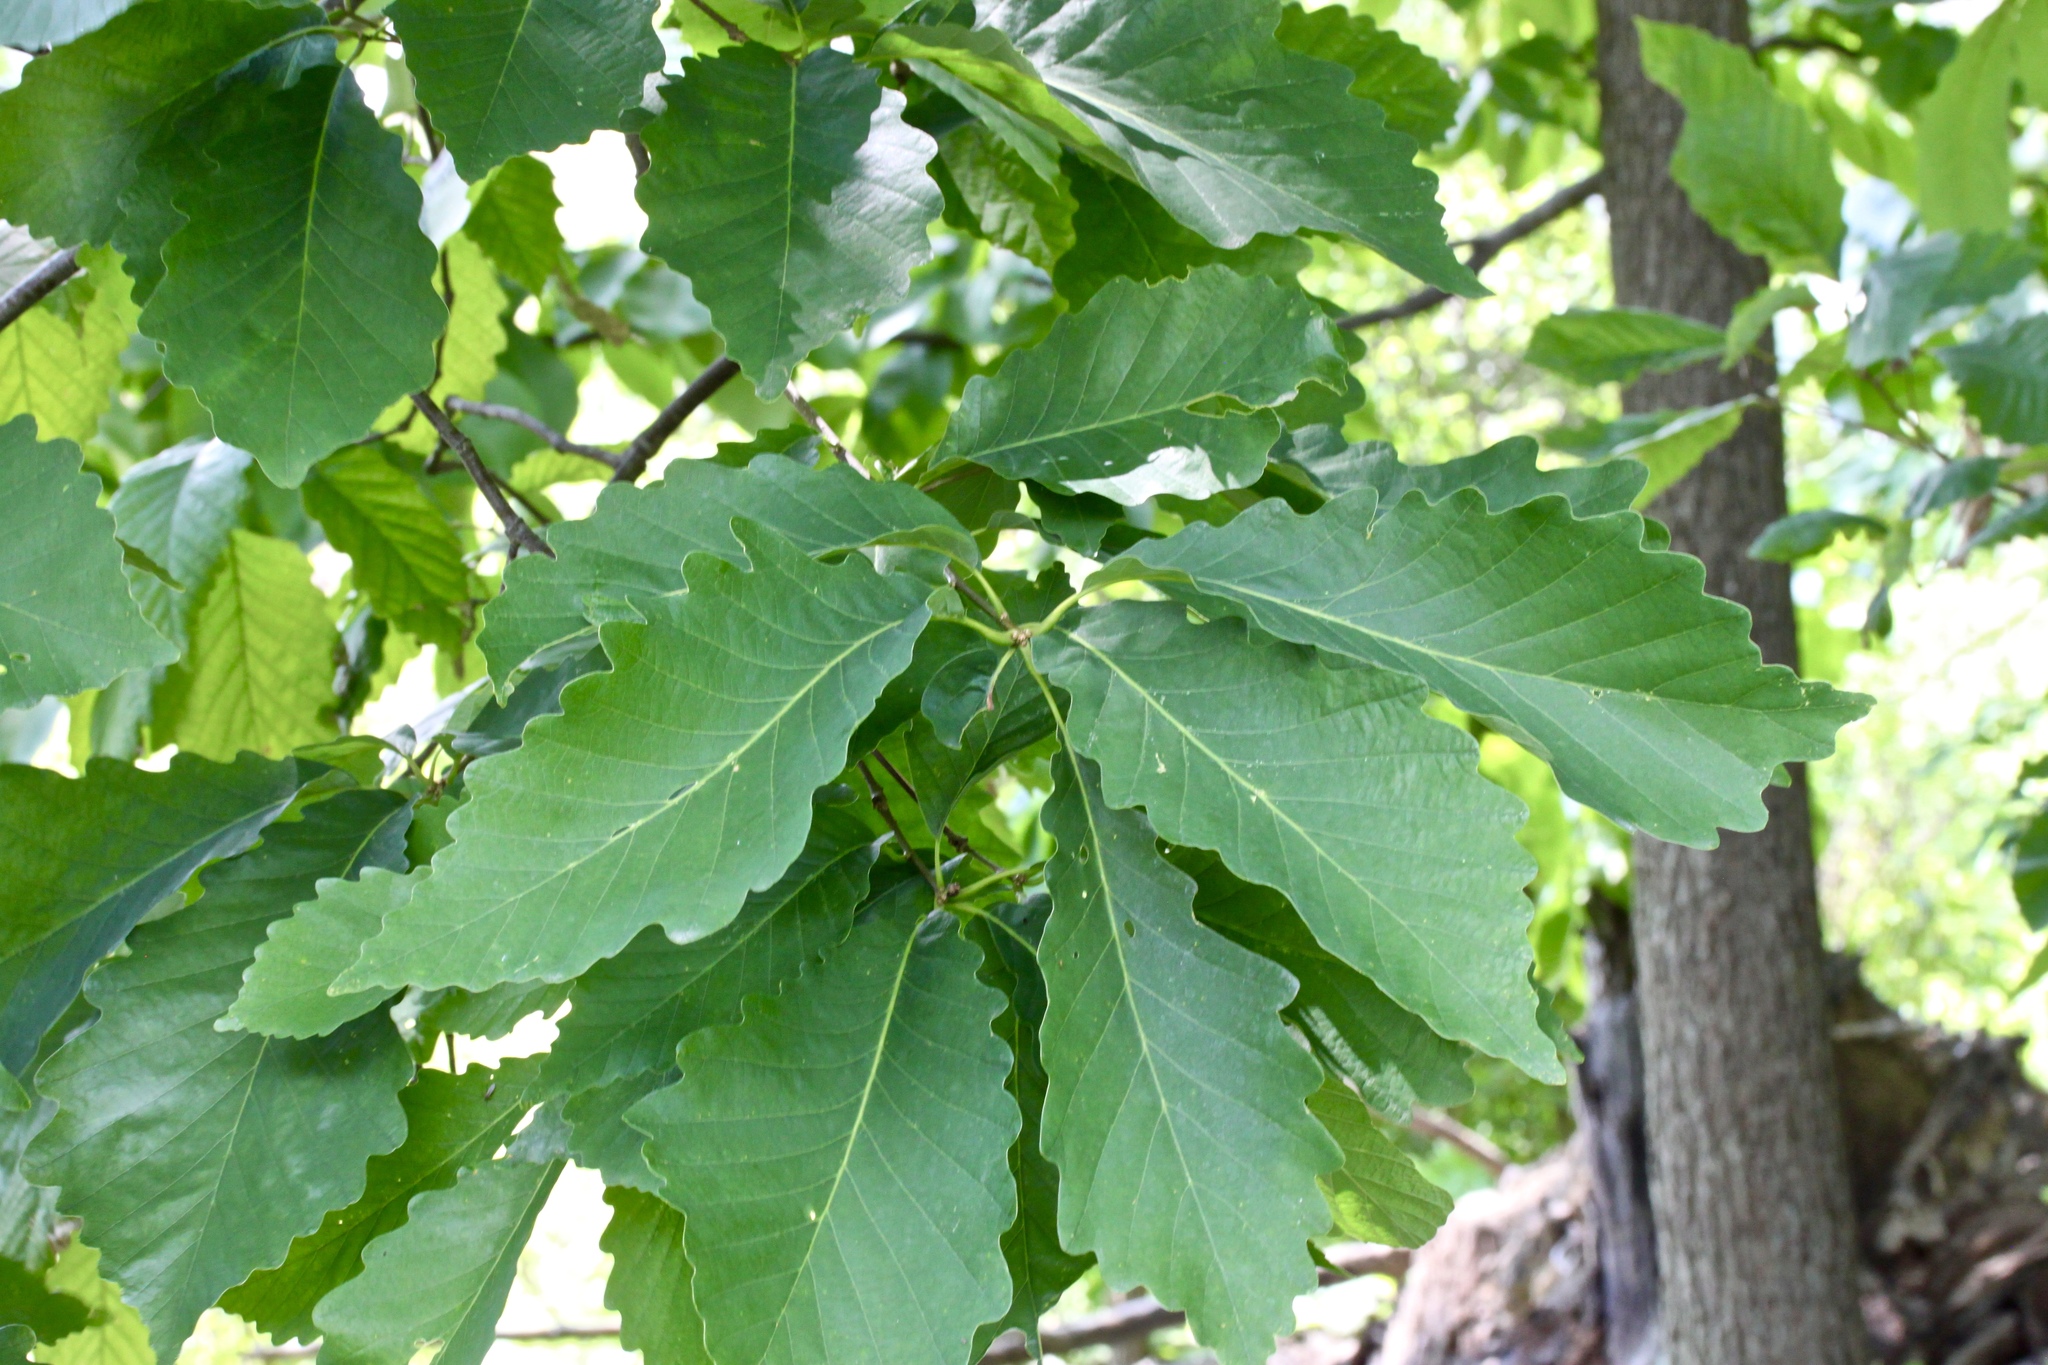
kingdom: Plantae
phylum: Tracheophyta
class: Magnoliopsida
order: Fagales
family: Fagaceae
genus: Quercus
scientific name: Quercus montana
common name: Chestnut oak
